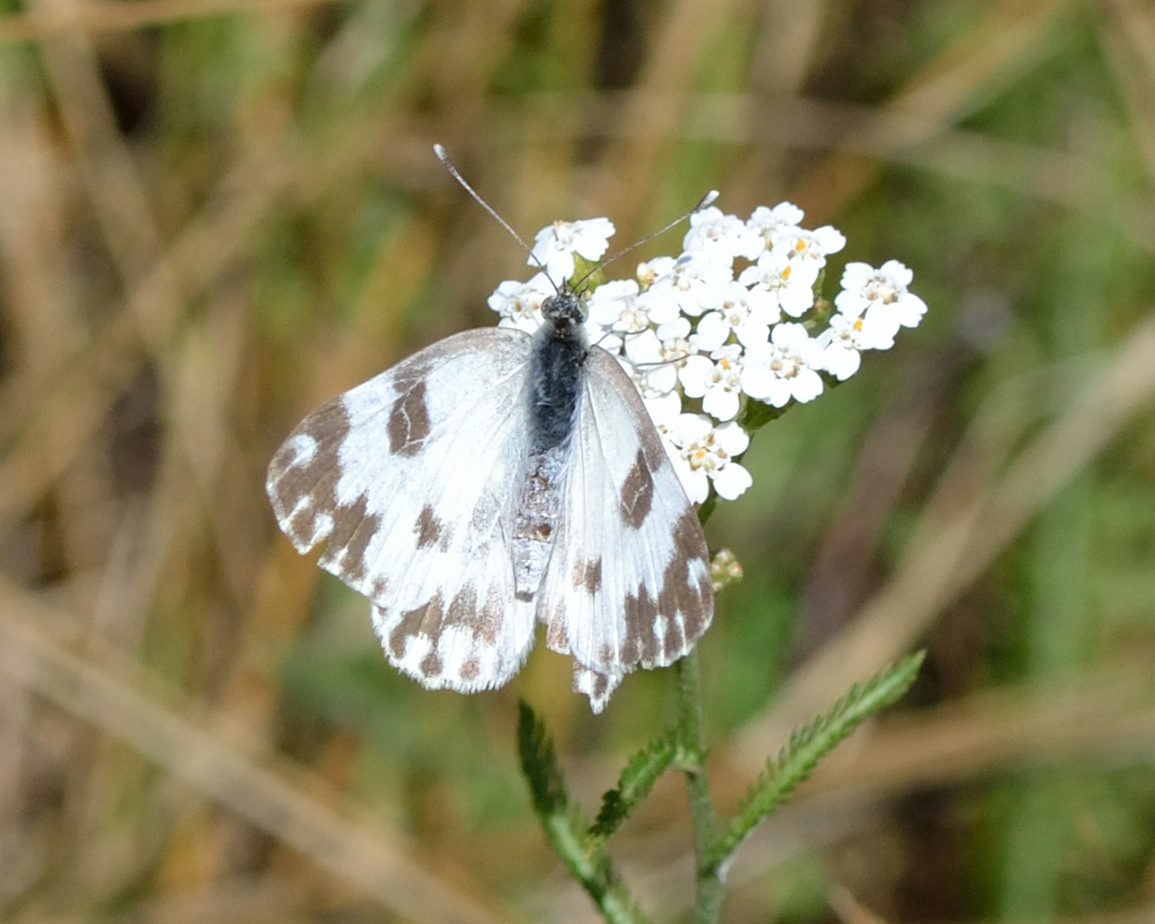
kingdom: Animalia
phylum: Arthropoda
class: Insecta
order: Lepidoptera
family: Pieridae
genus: Pontia
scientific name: Pontia edusa
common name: Eastern bath white
